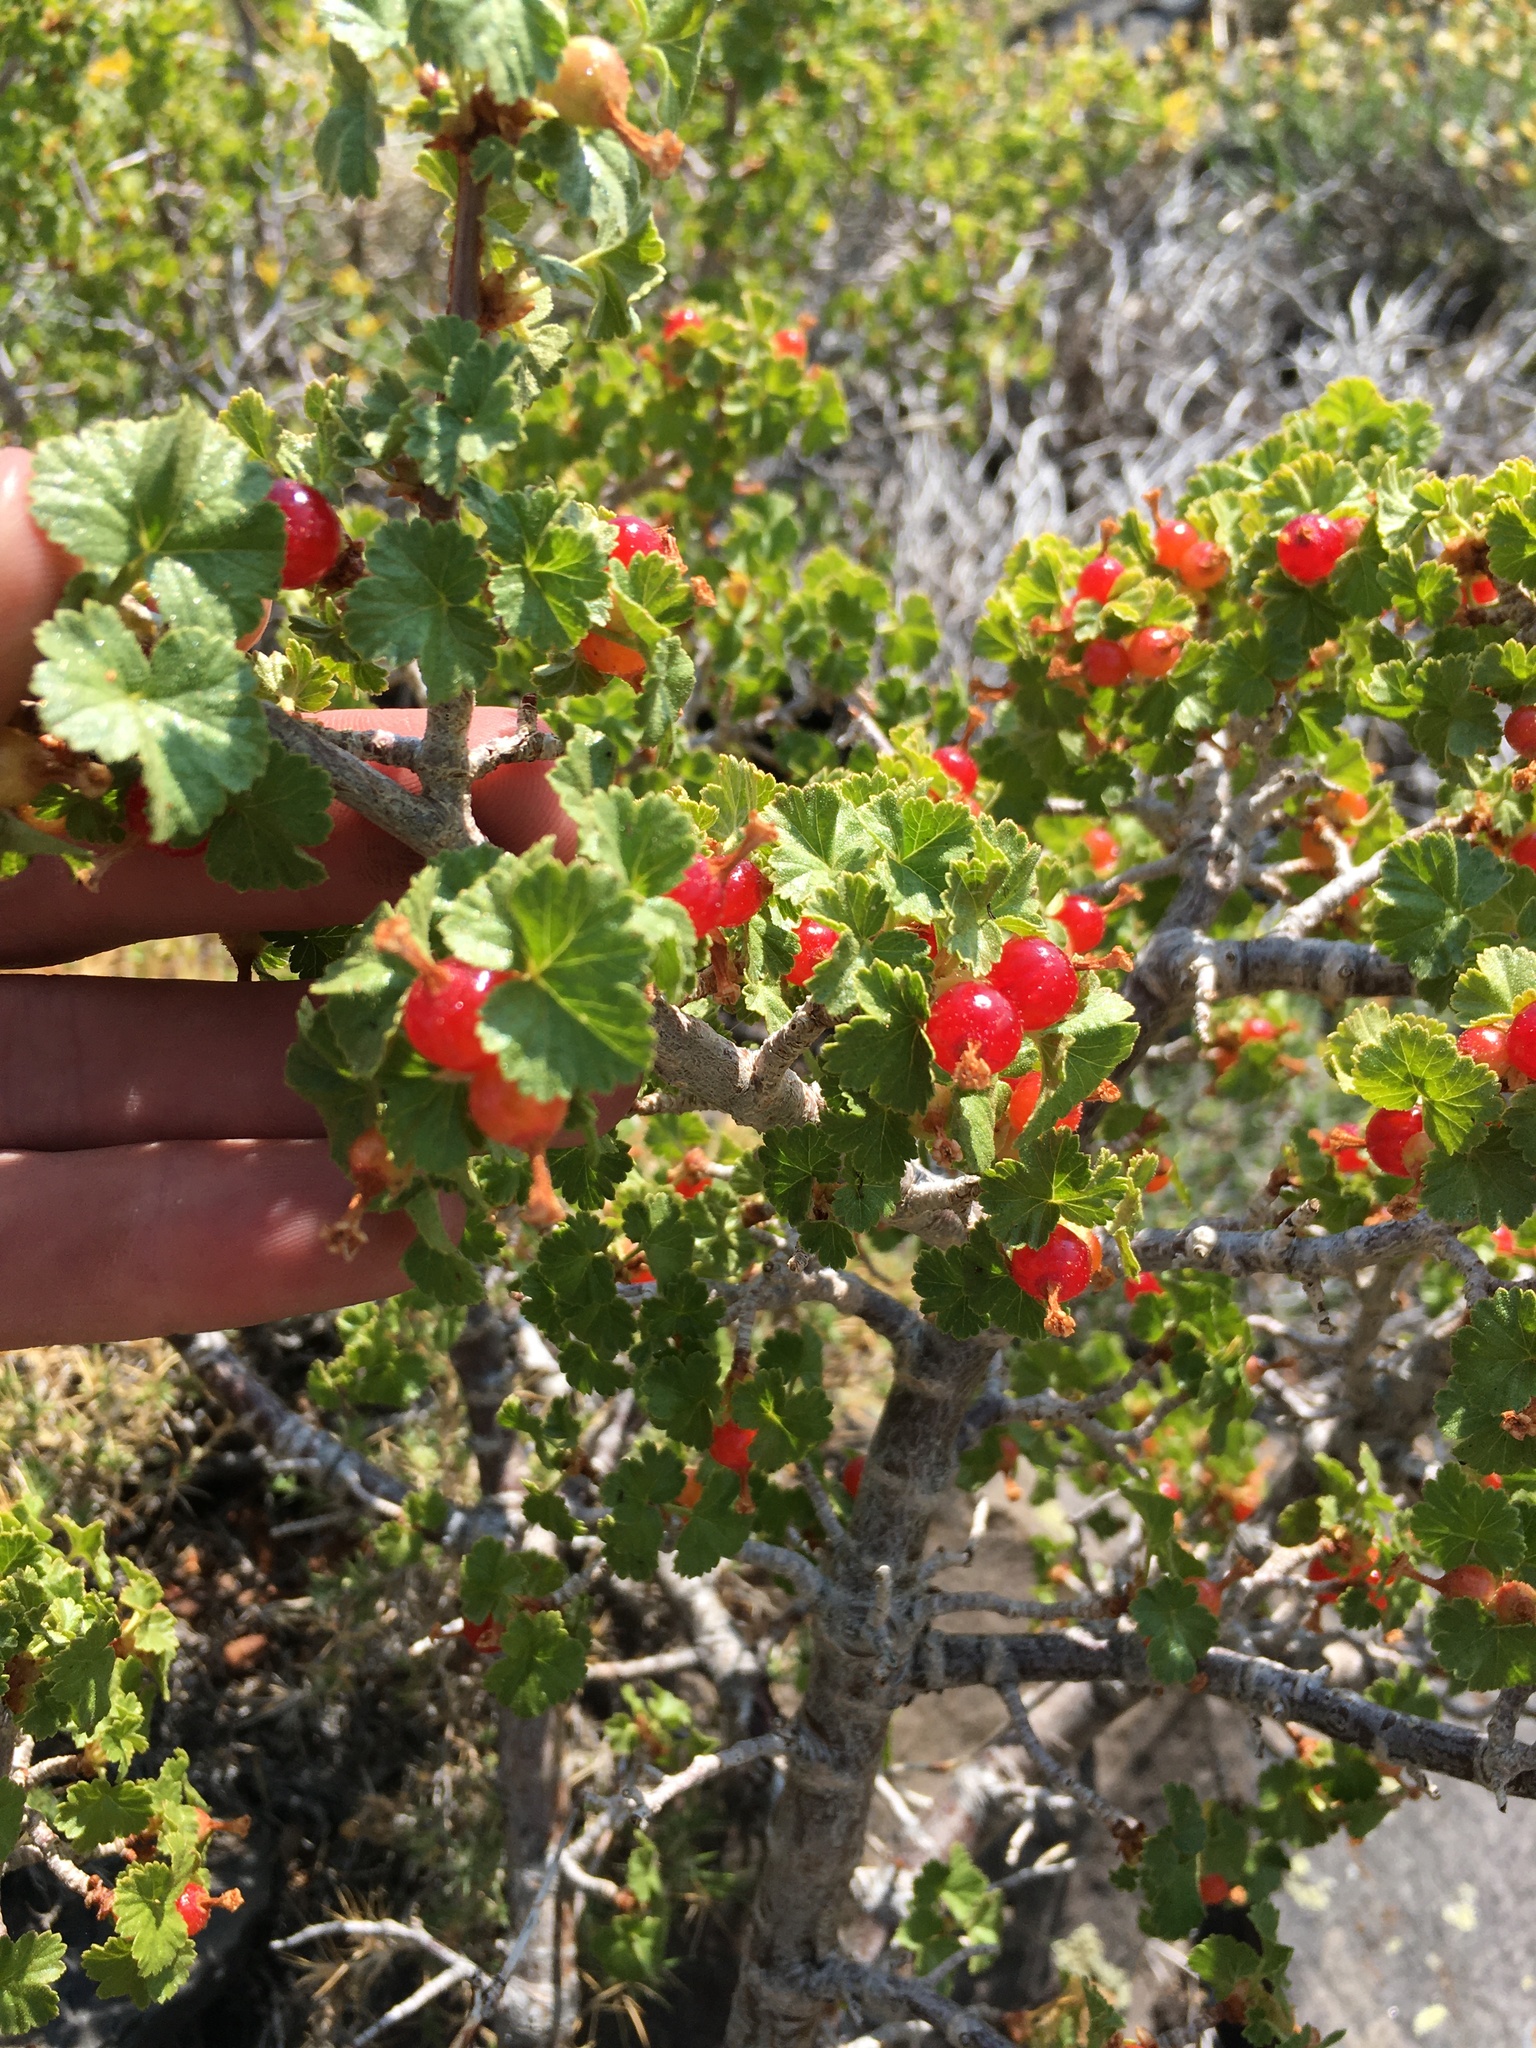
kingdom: Plantae
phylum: Tracheophyta
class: Magnoliopsida
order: Saxifragales
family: Grossulariaceae
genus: Ribes
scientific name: Ribes cereum
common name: Wax currant
